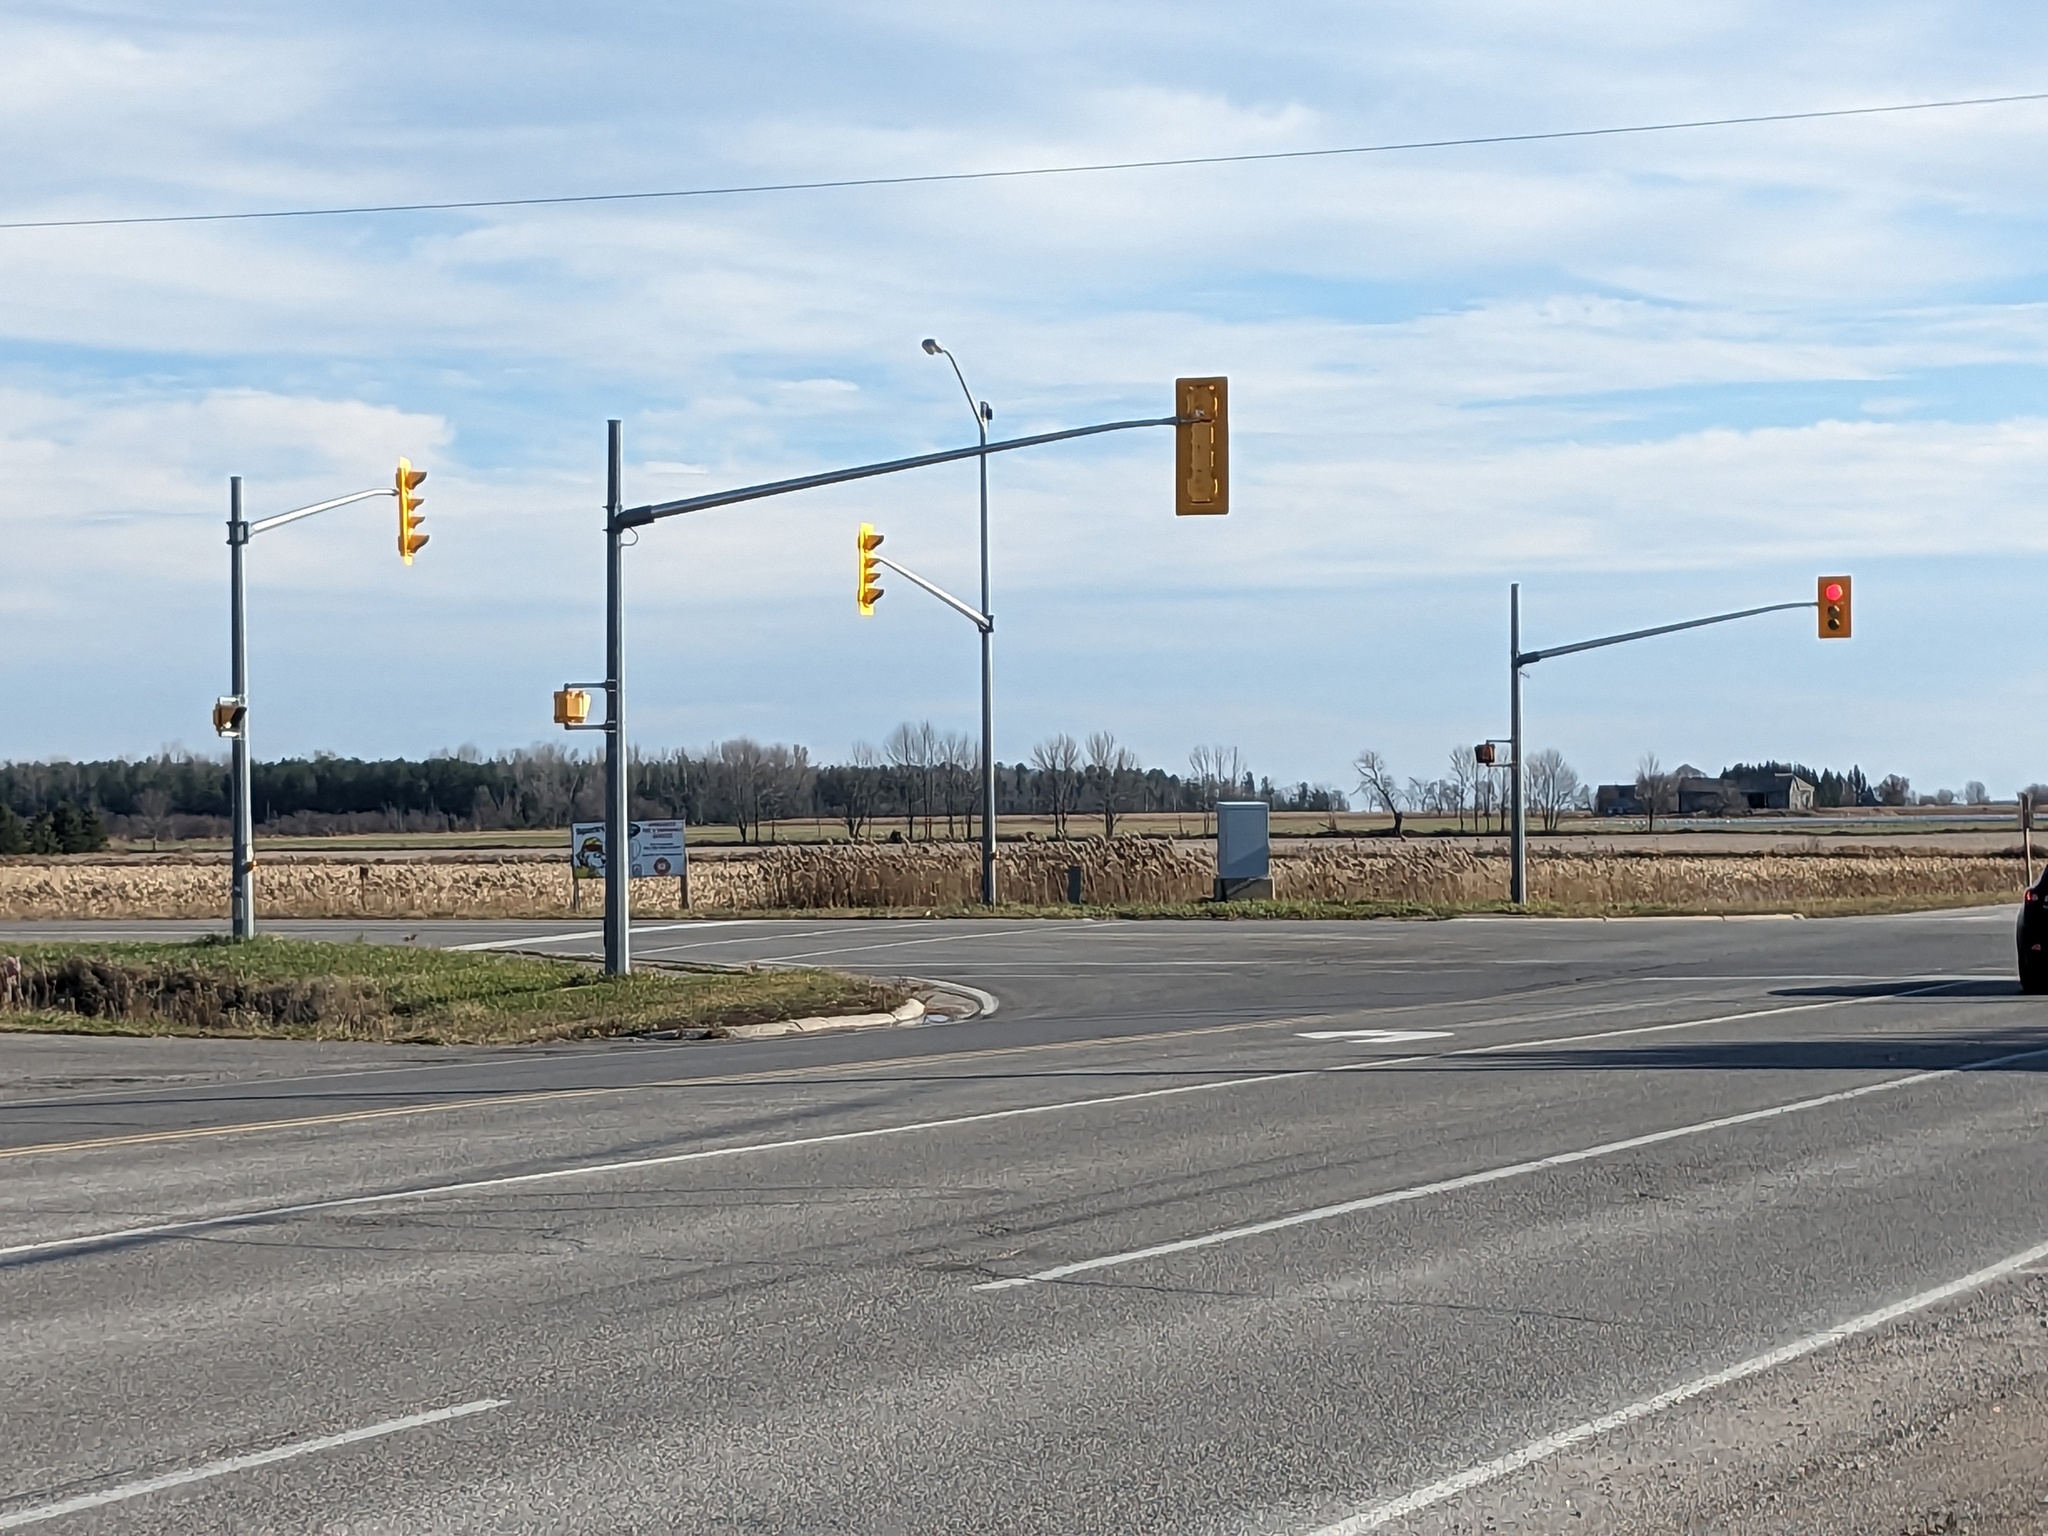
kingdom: Plantae
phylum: Tracheophyta
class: Liliopsida
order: Poales
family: Poaceae
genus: Phragmites
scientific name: Phragmites australis
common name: Common reed
